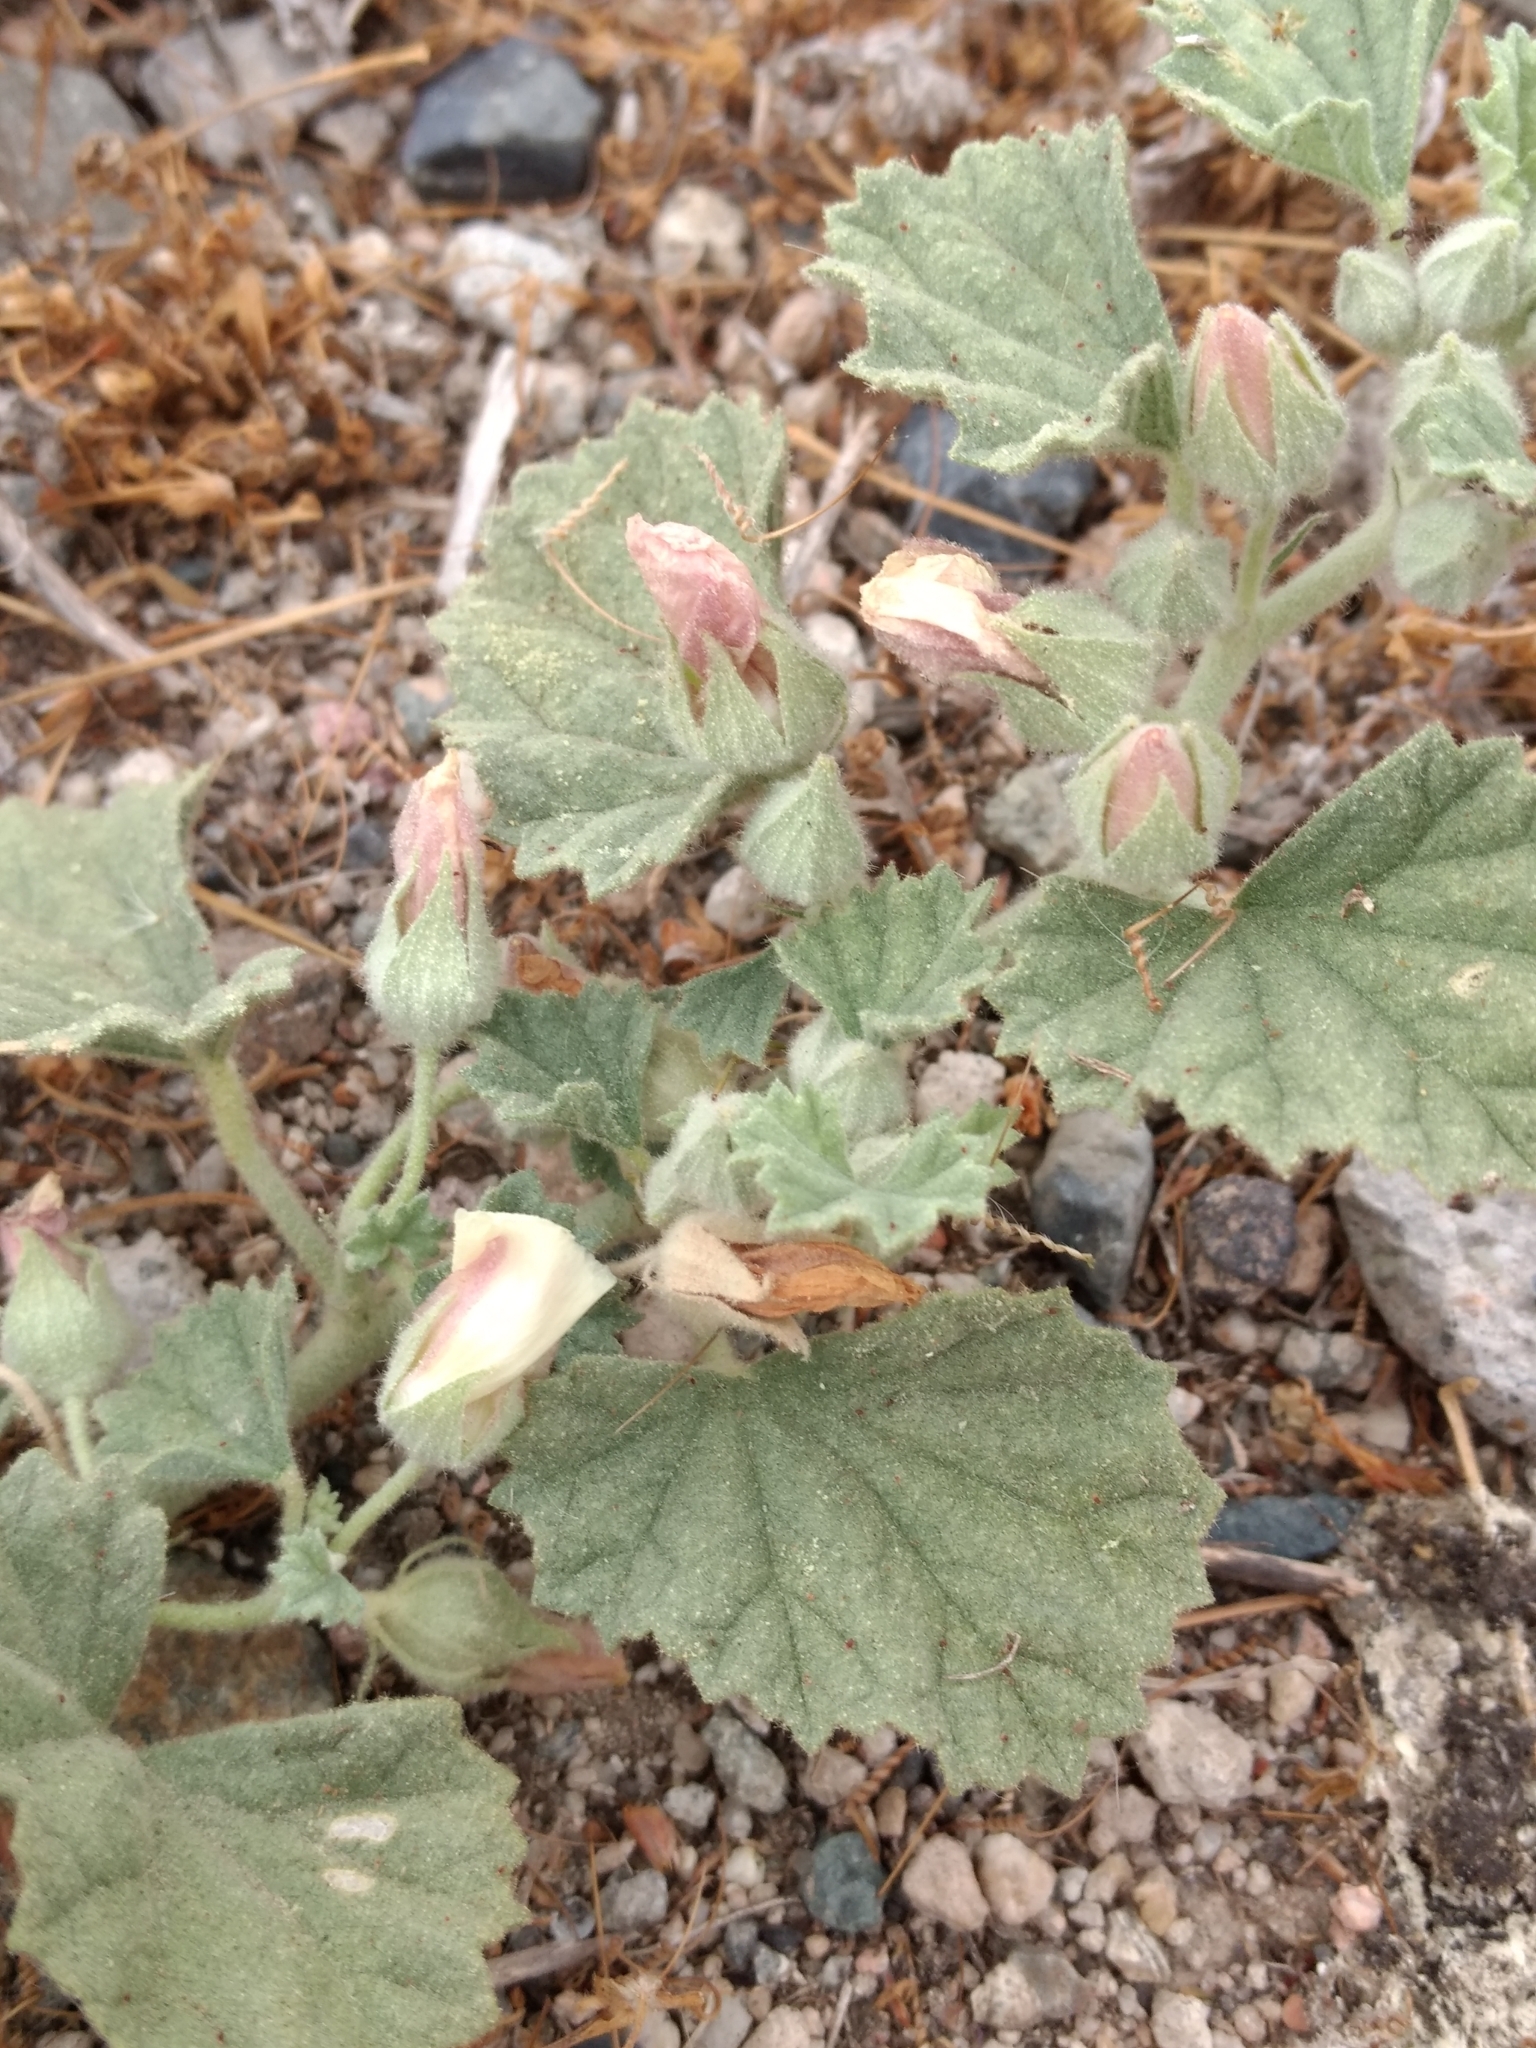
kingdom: Plantae
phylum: Tracheophyta
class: Magnoliopsida
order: Malvales
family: Malvaceae
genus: Malvella
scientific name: Malvella leprosa
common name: Alkali-mallow
